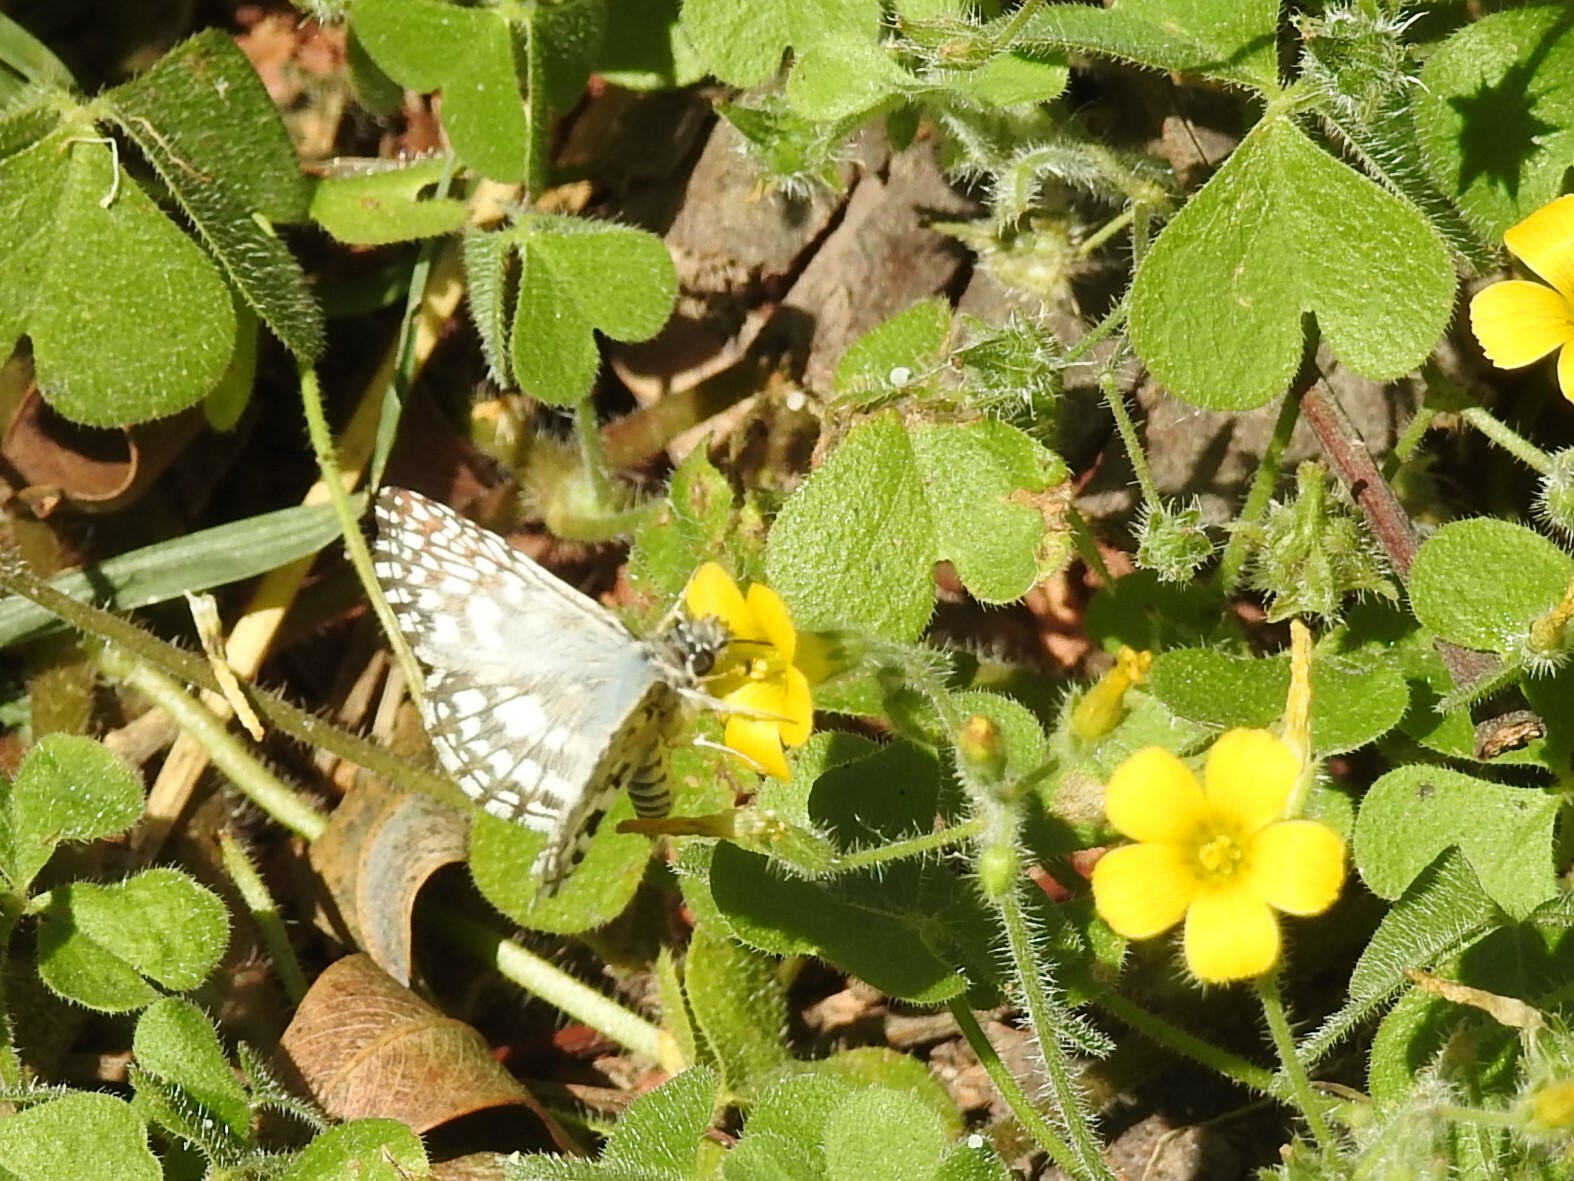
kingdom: Animalia
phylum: Arthropoda
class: Insecta
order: Lepidoptera
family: Hesperiidae
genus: Pyrgus
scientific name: Pyrgus oileus
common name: Tropical checkered-skipper
